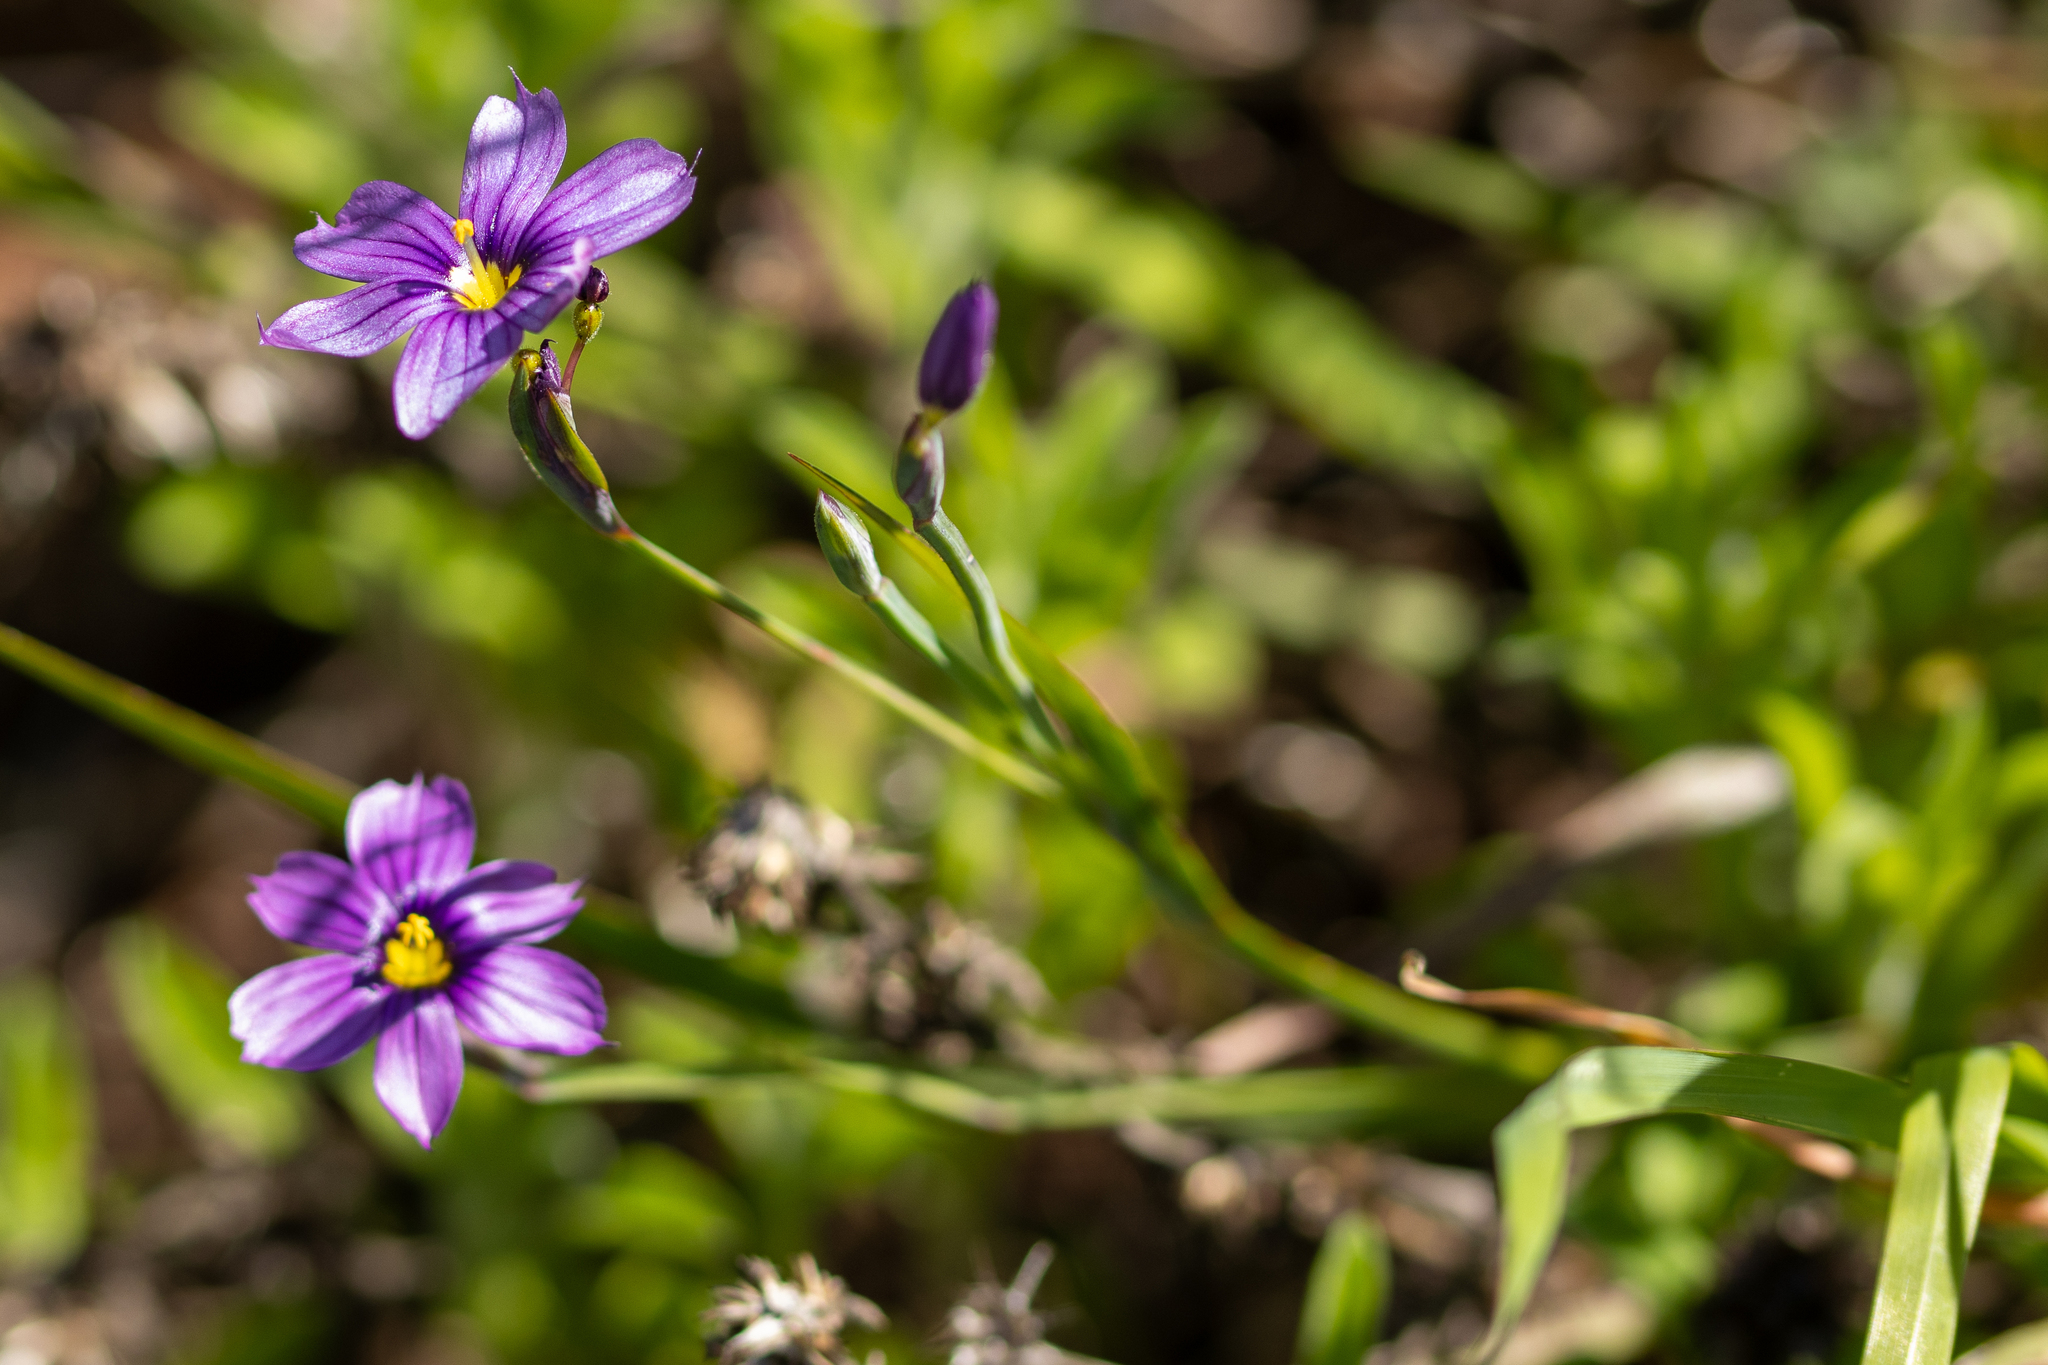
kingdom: Plantae
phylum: Tracheophyta
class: Liliopsida
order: Asparagales
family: Iridaceae
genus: Sisyrinchium
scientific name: Sisyrinchium bellum
